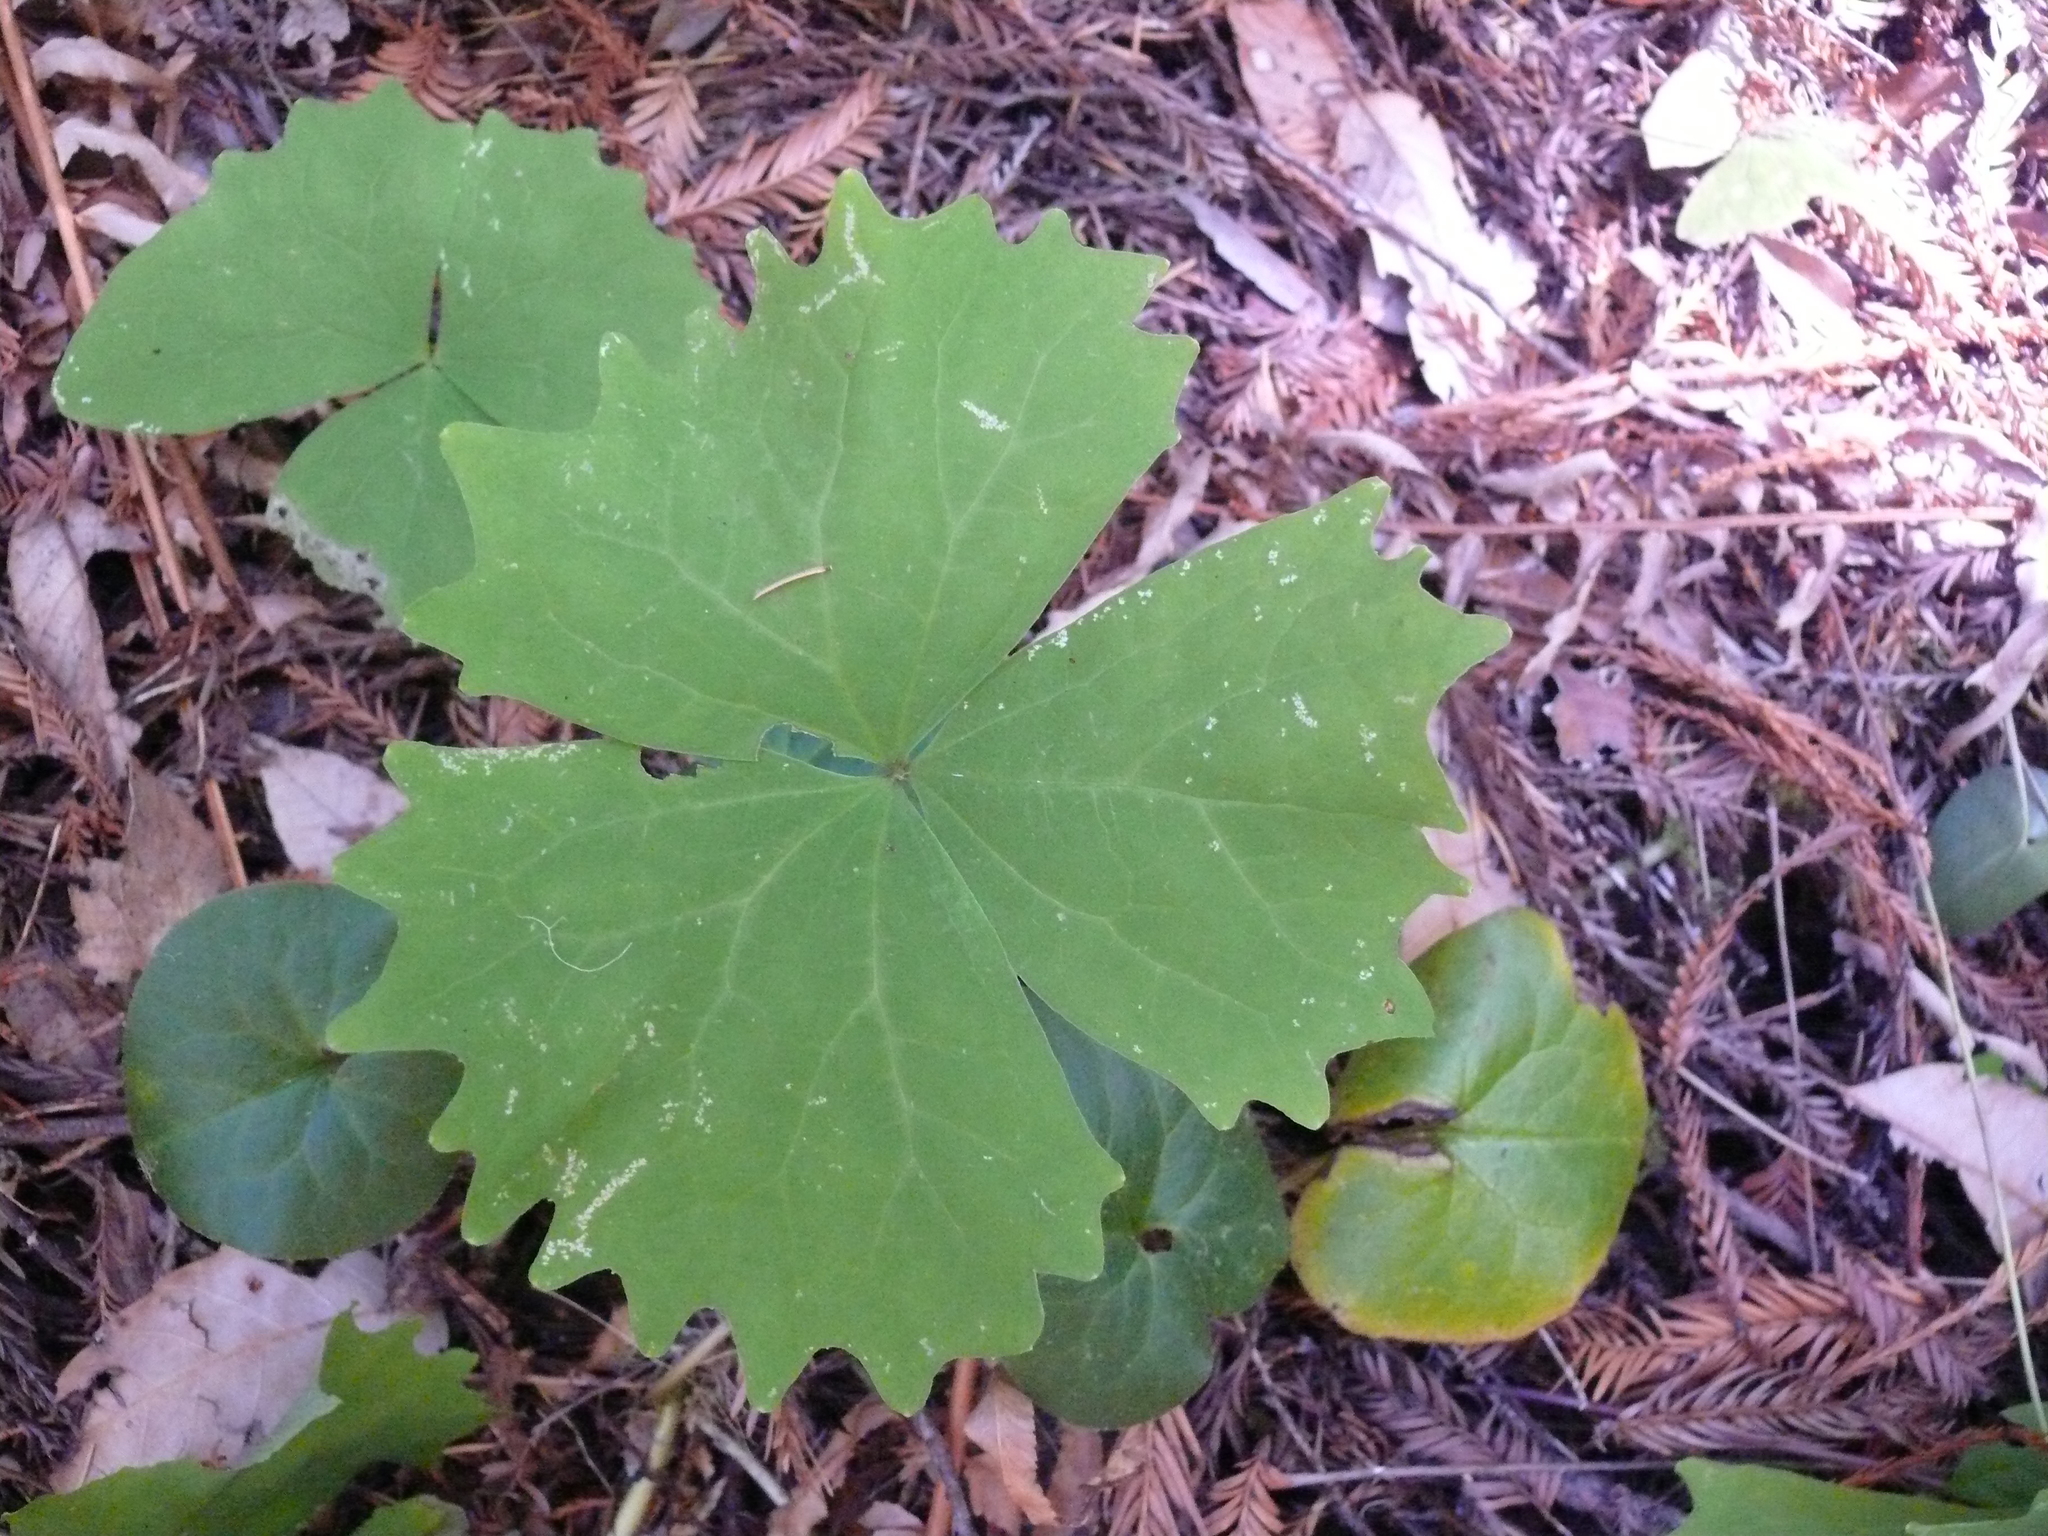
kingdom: Plantae
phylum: Tracheophyta
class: Magnoliopsida
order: Ranunculales
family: Berberidaceae
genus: Achlys
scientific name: Achlys californica
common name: California deer-foot
